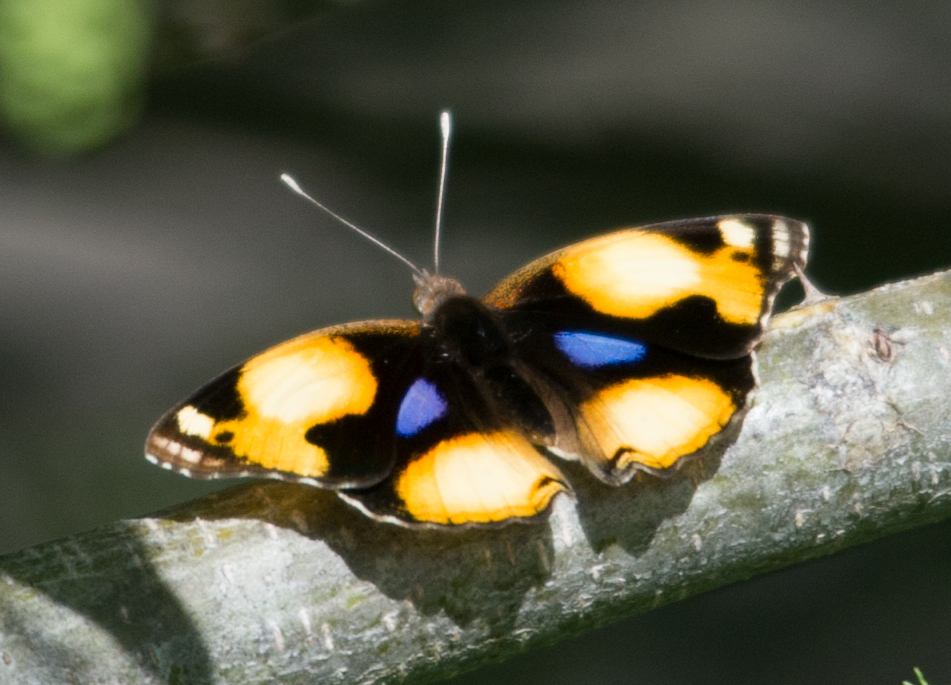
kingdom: Animalia
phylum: Arthropoda
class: Insecta
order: Lepidoptera
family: Nymphalidae
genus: Junonia
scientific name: Junonia hierta
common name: Yellow pansy
